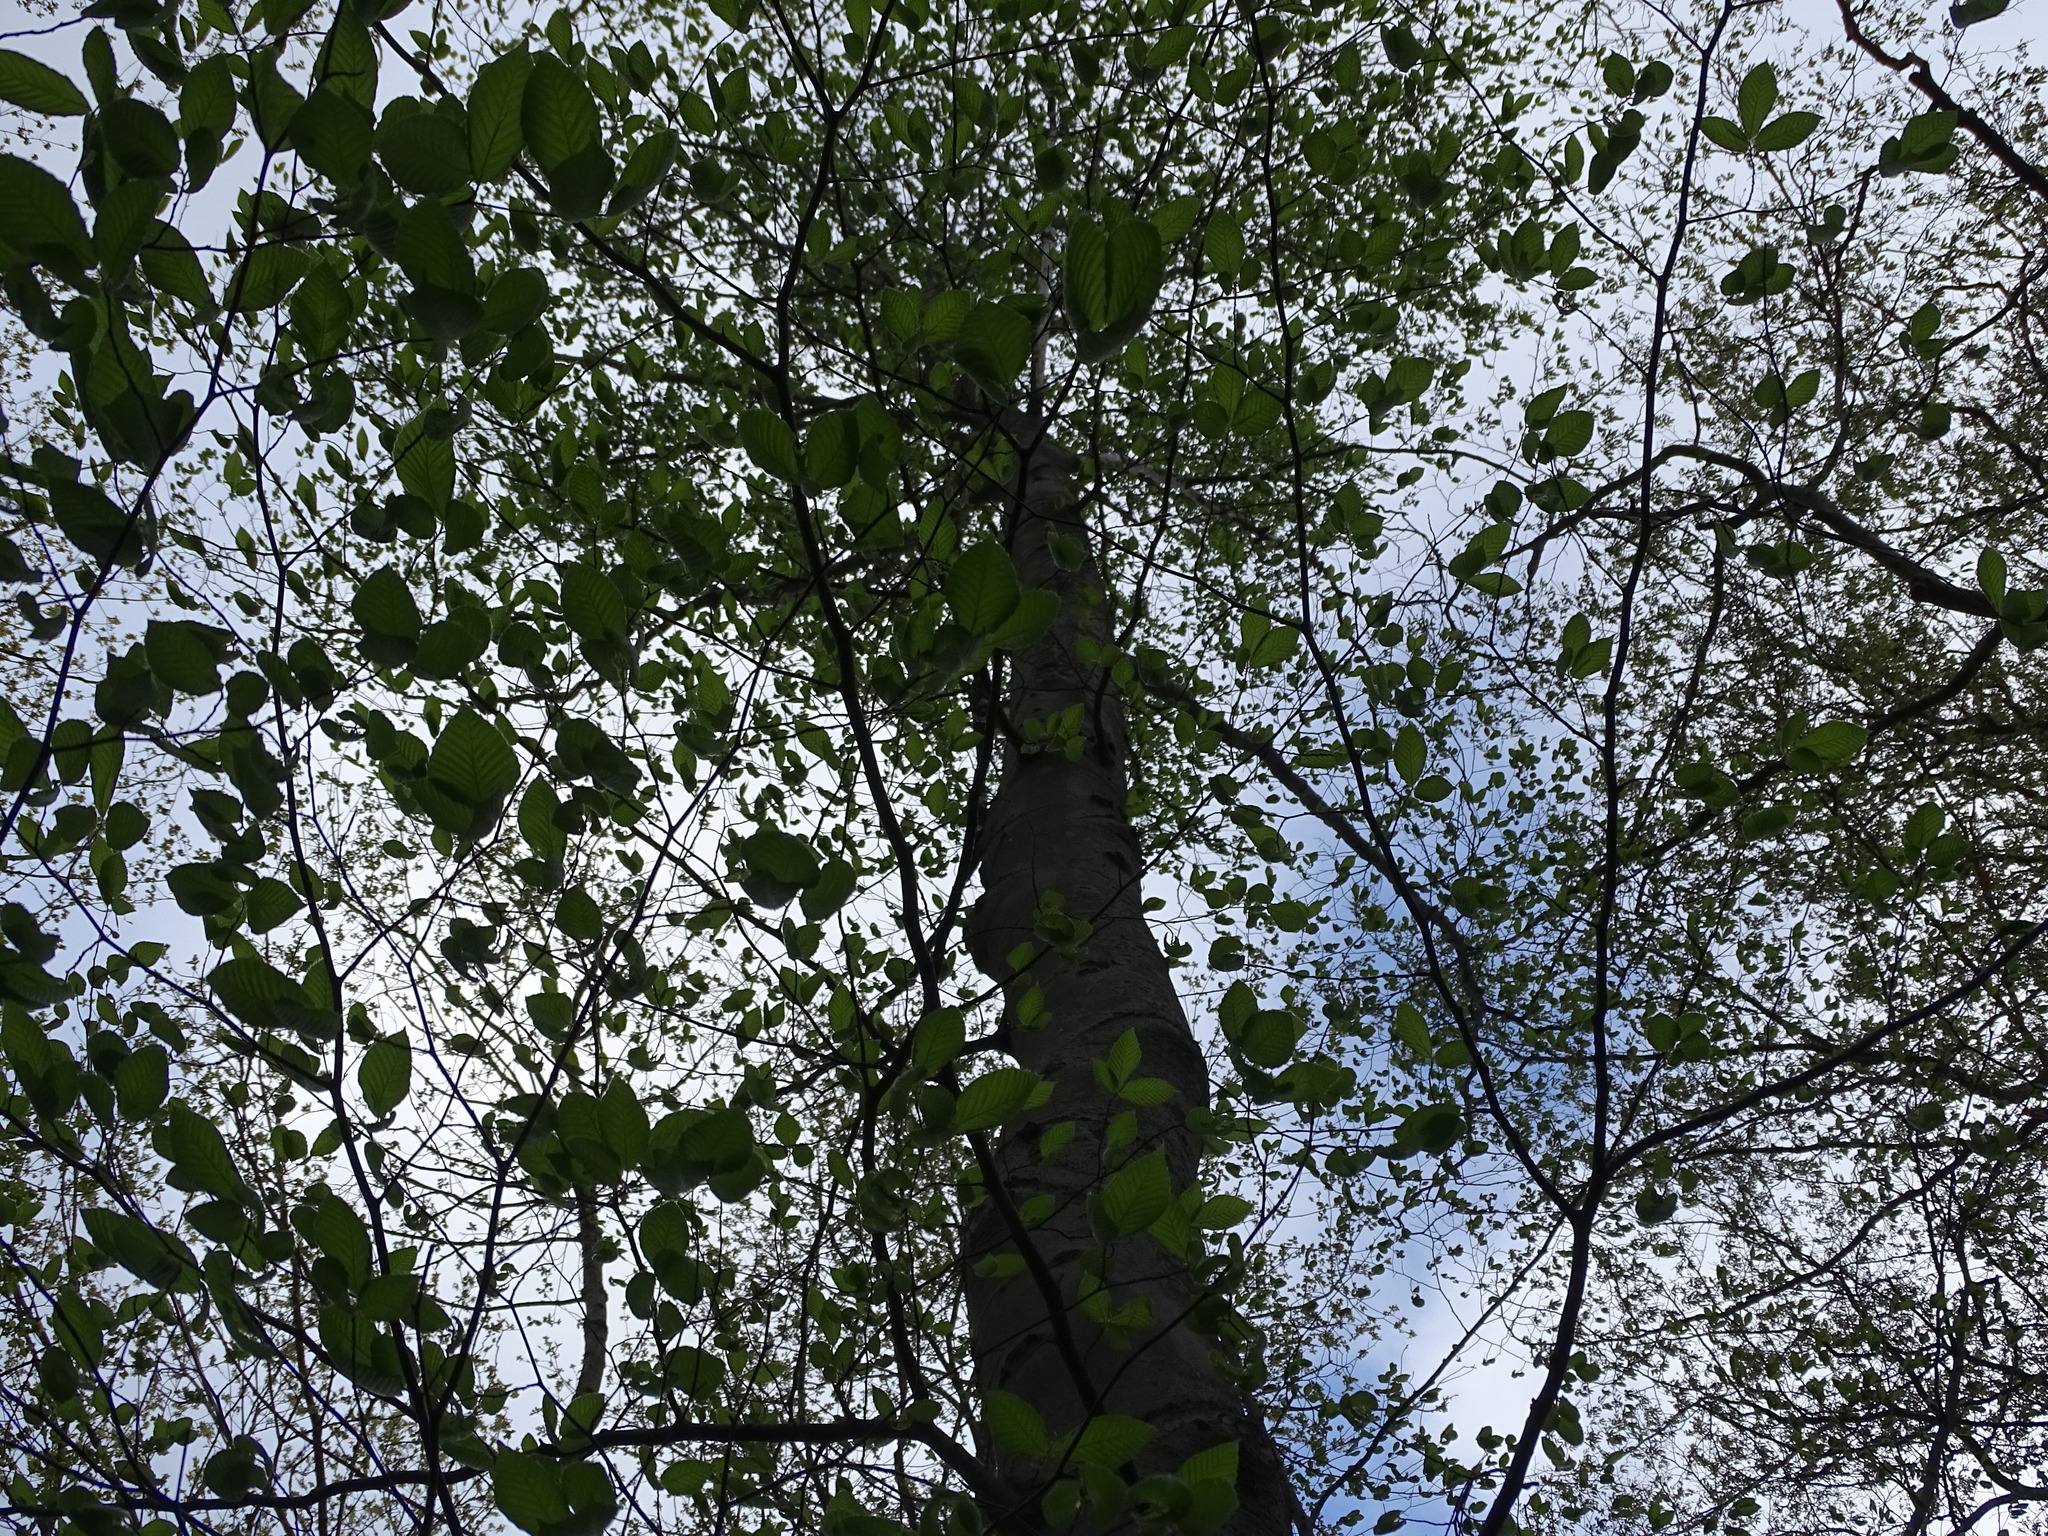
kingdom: Plantae
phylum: Tracheophyta
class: Magnoliopsida
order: Fagales
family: Fagaceae
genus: Fagus
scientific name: Fagus grandifolia
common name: American beech
